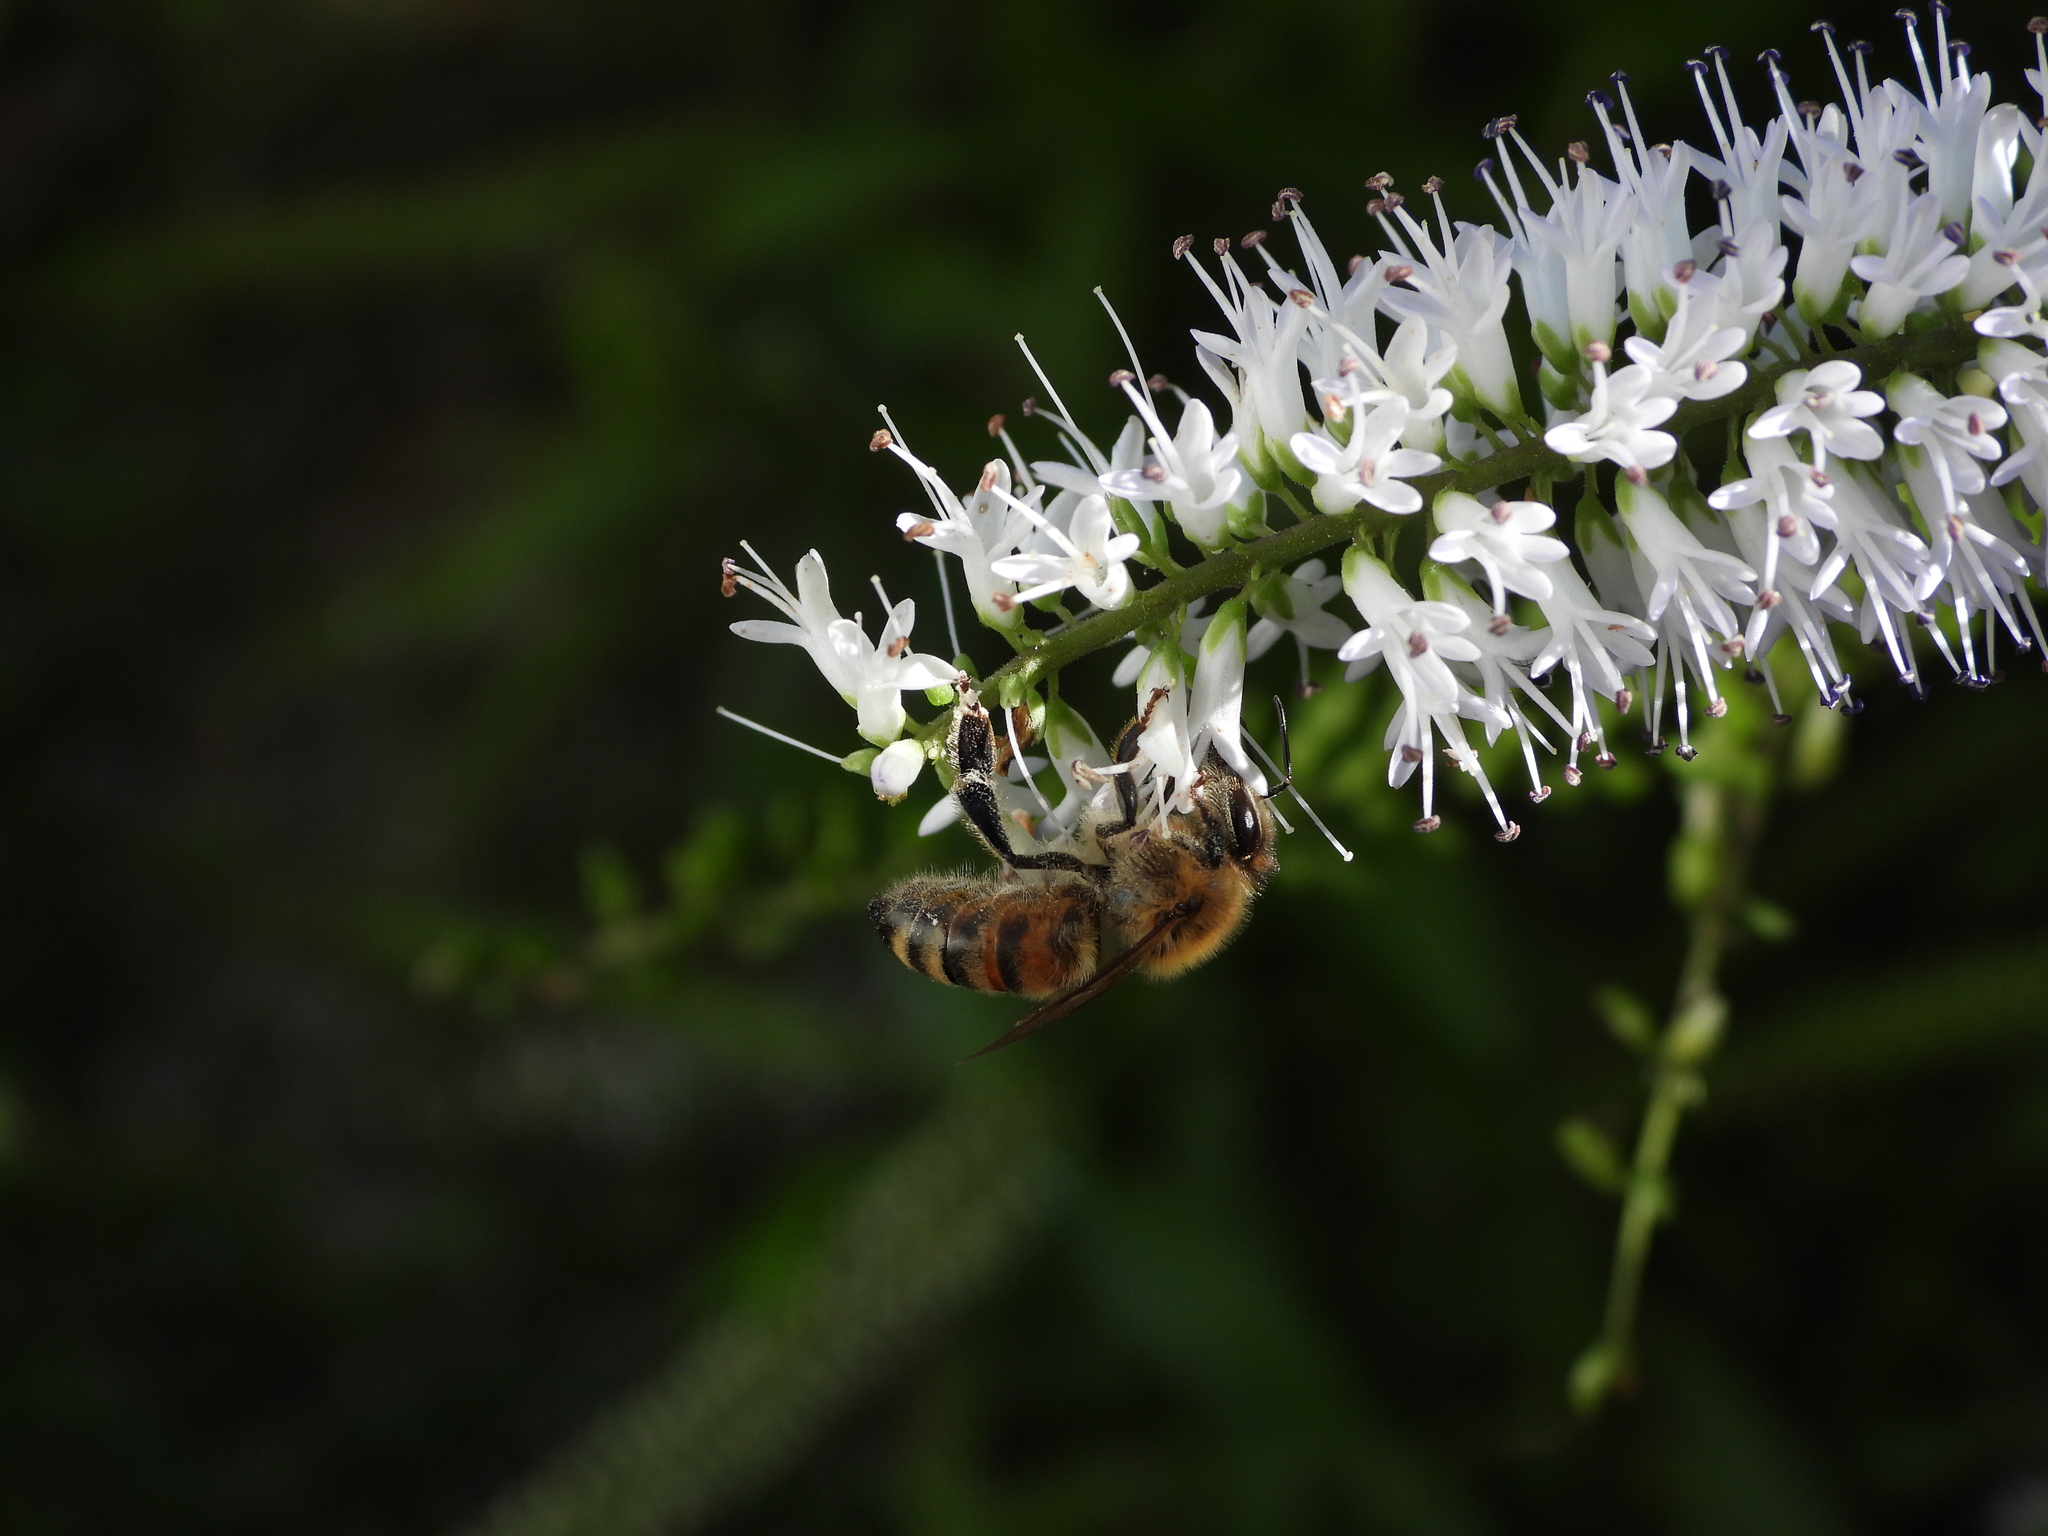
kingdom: Animalia
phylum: Arthropoda
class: Insecta
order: Hymenoptera
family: Apidae
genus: Apis
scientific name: Apis mellifera
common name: Honey bee
